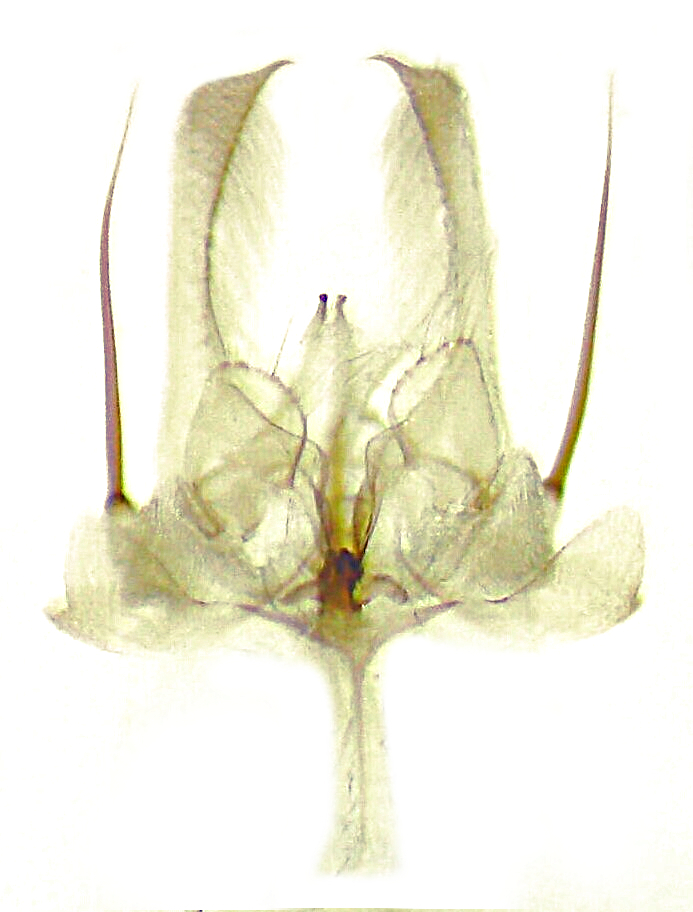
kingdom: Animalia
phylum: Arthropoda
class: Insecta
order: Lepidoptera
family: Cosmopterigidae
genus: Ithome
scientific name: Ithome erransella
